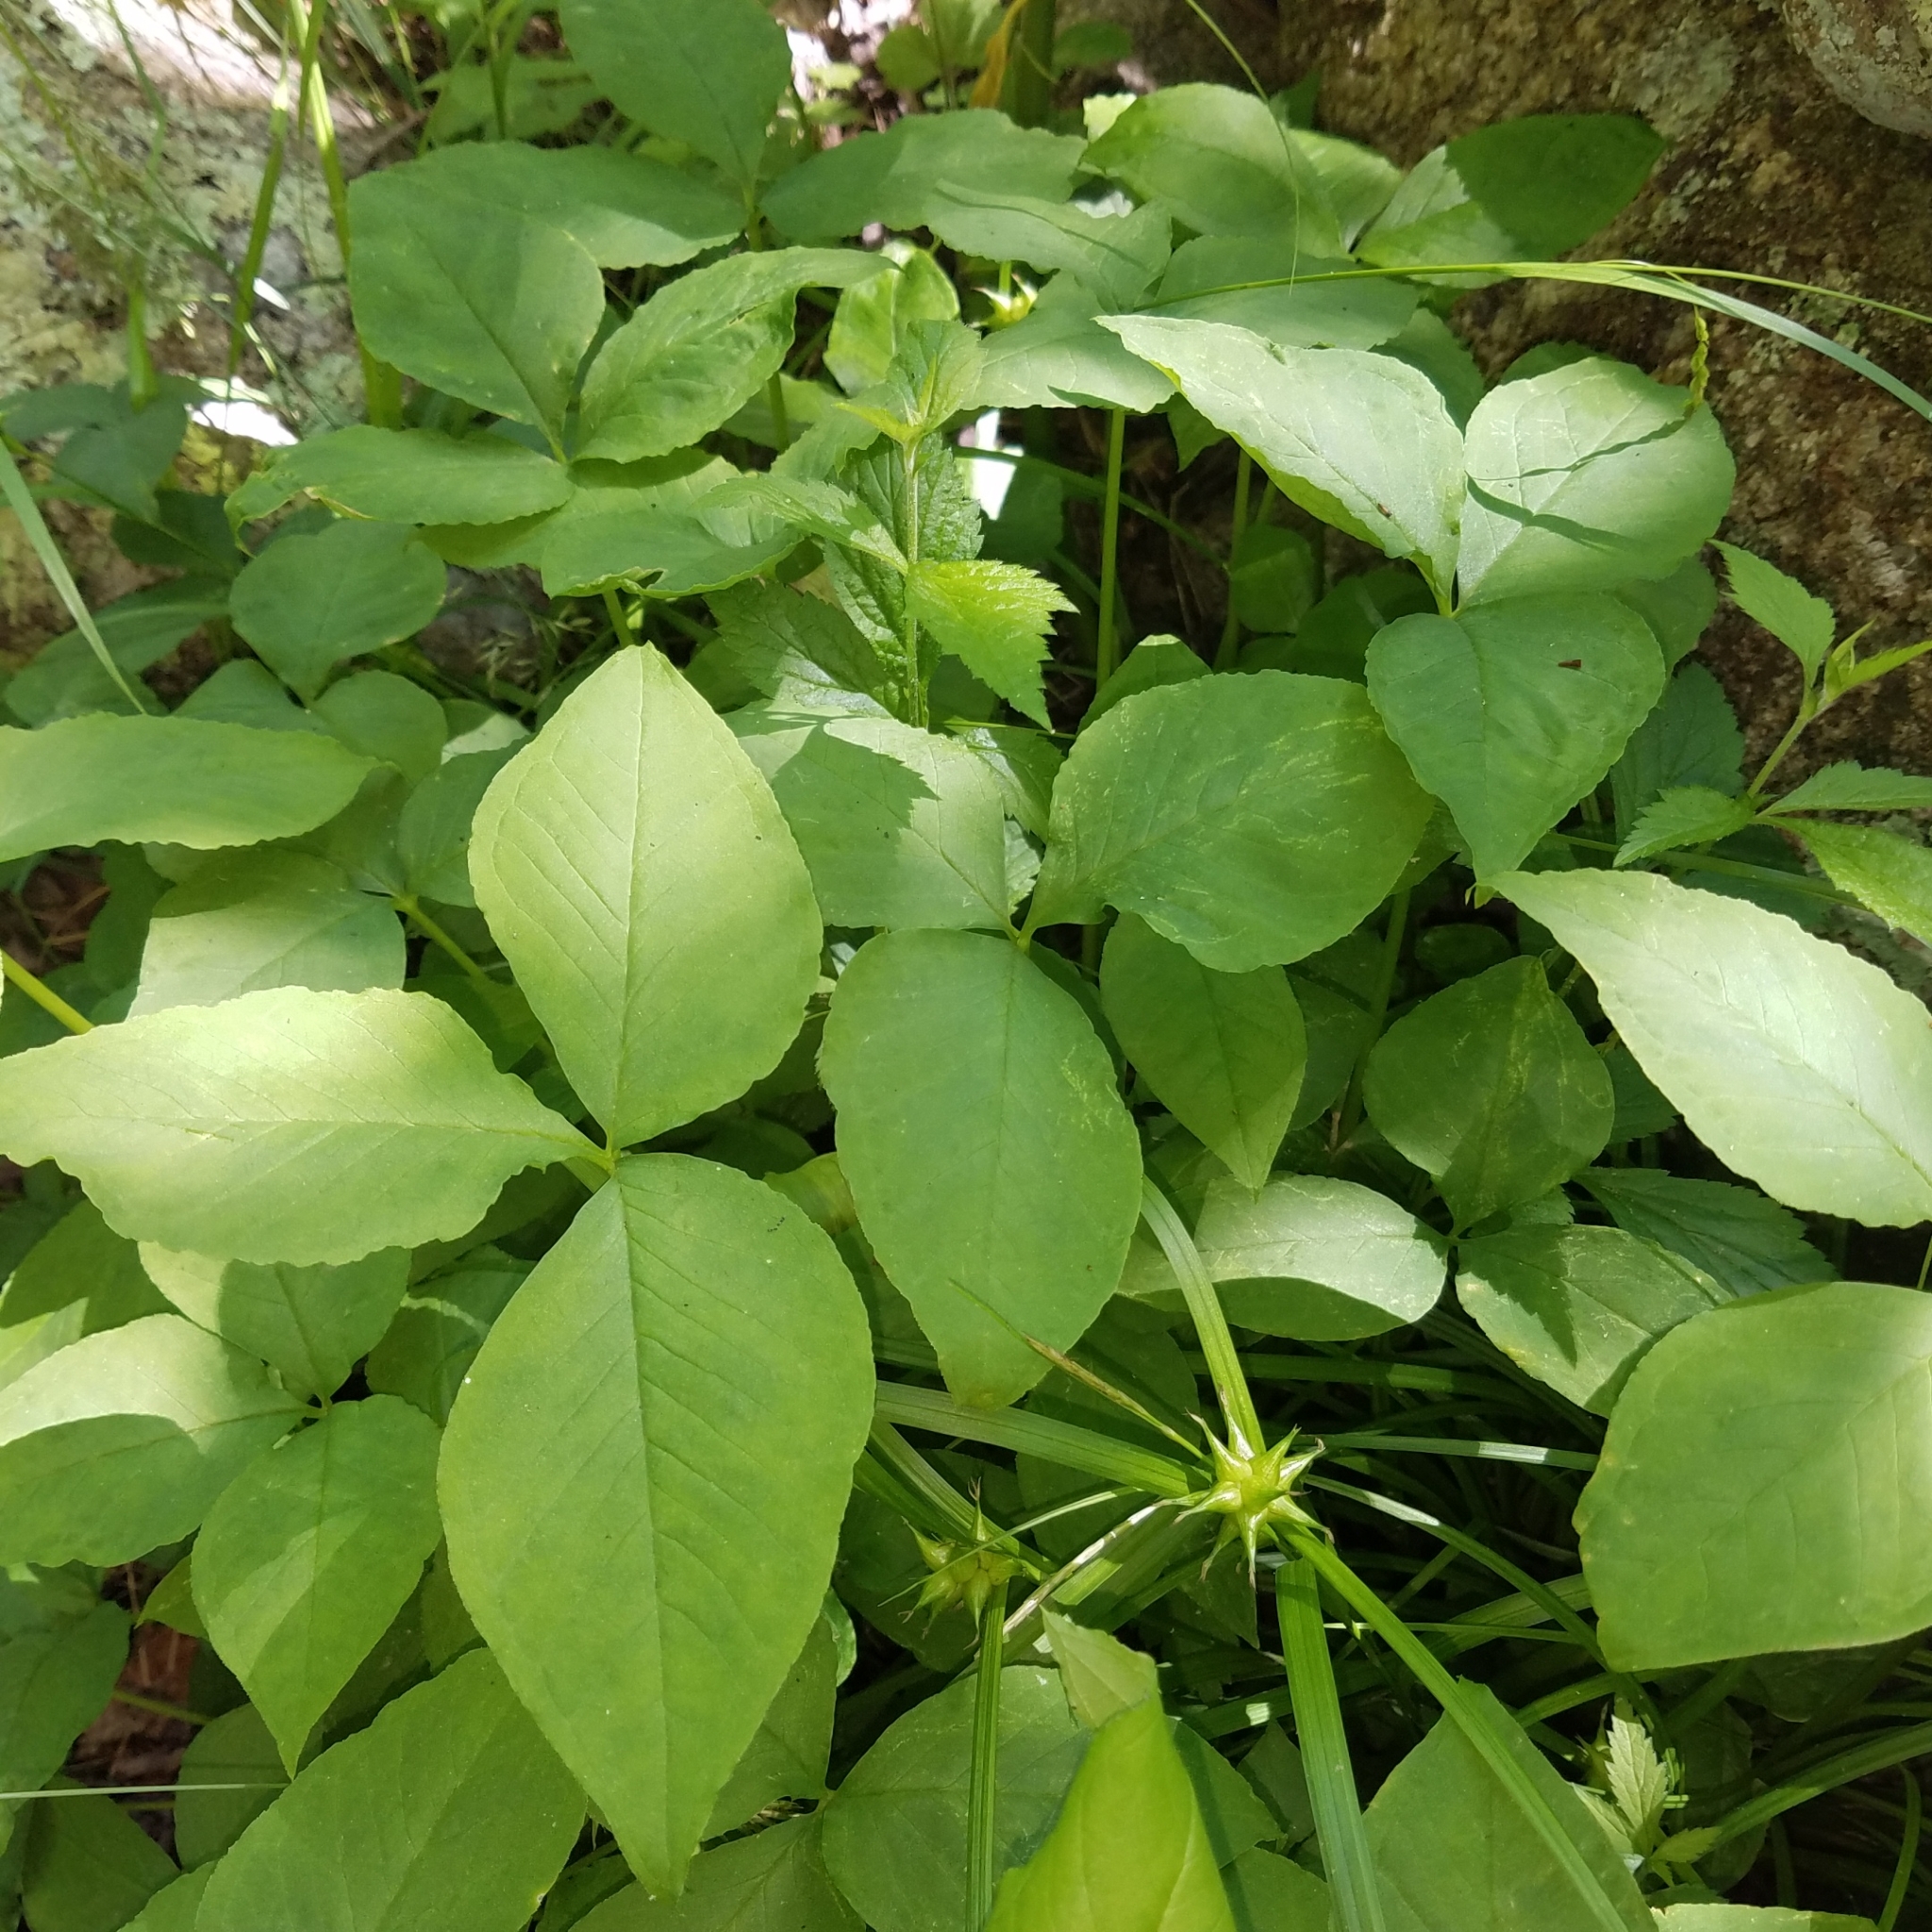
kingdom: Plantae
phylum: Tracheophyta
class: Liliopsida
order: Alismatales
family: Araceae
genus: Arisaema
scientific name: Arisaema triphyllum
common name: Jack-in-the-pulpit
